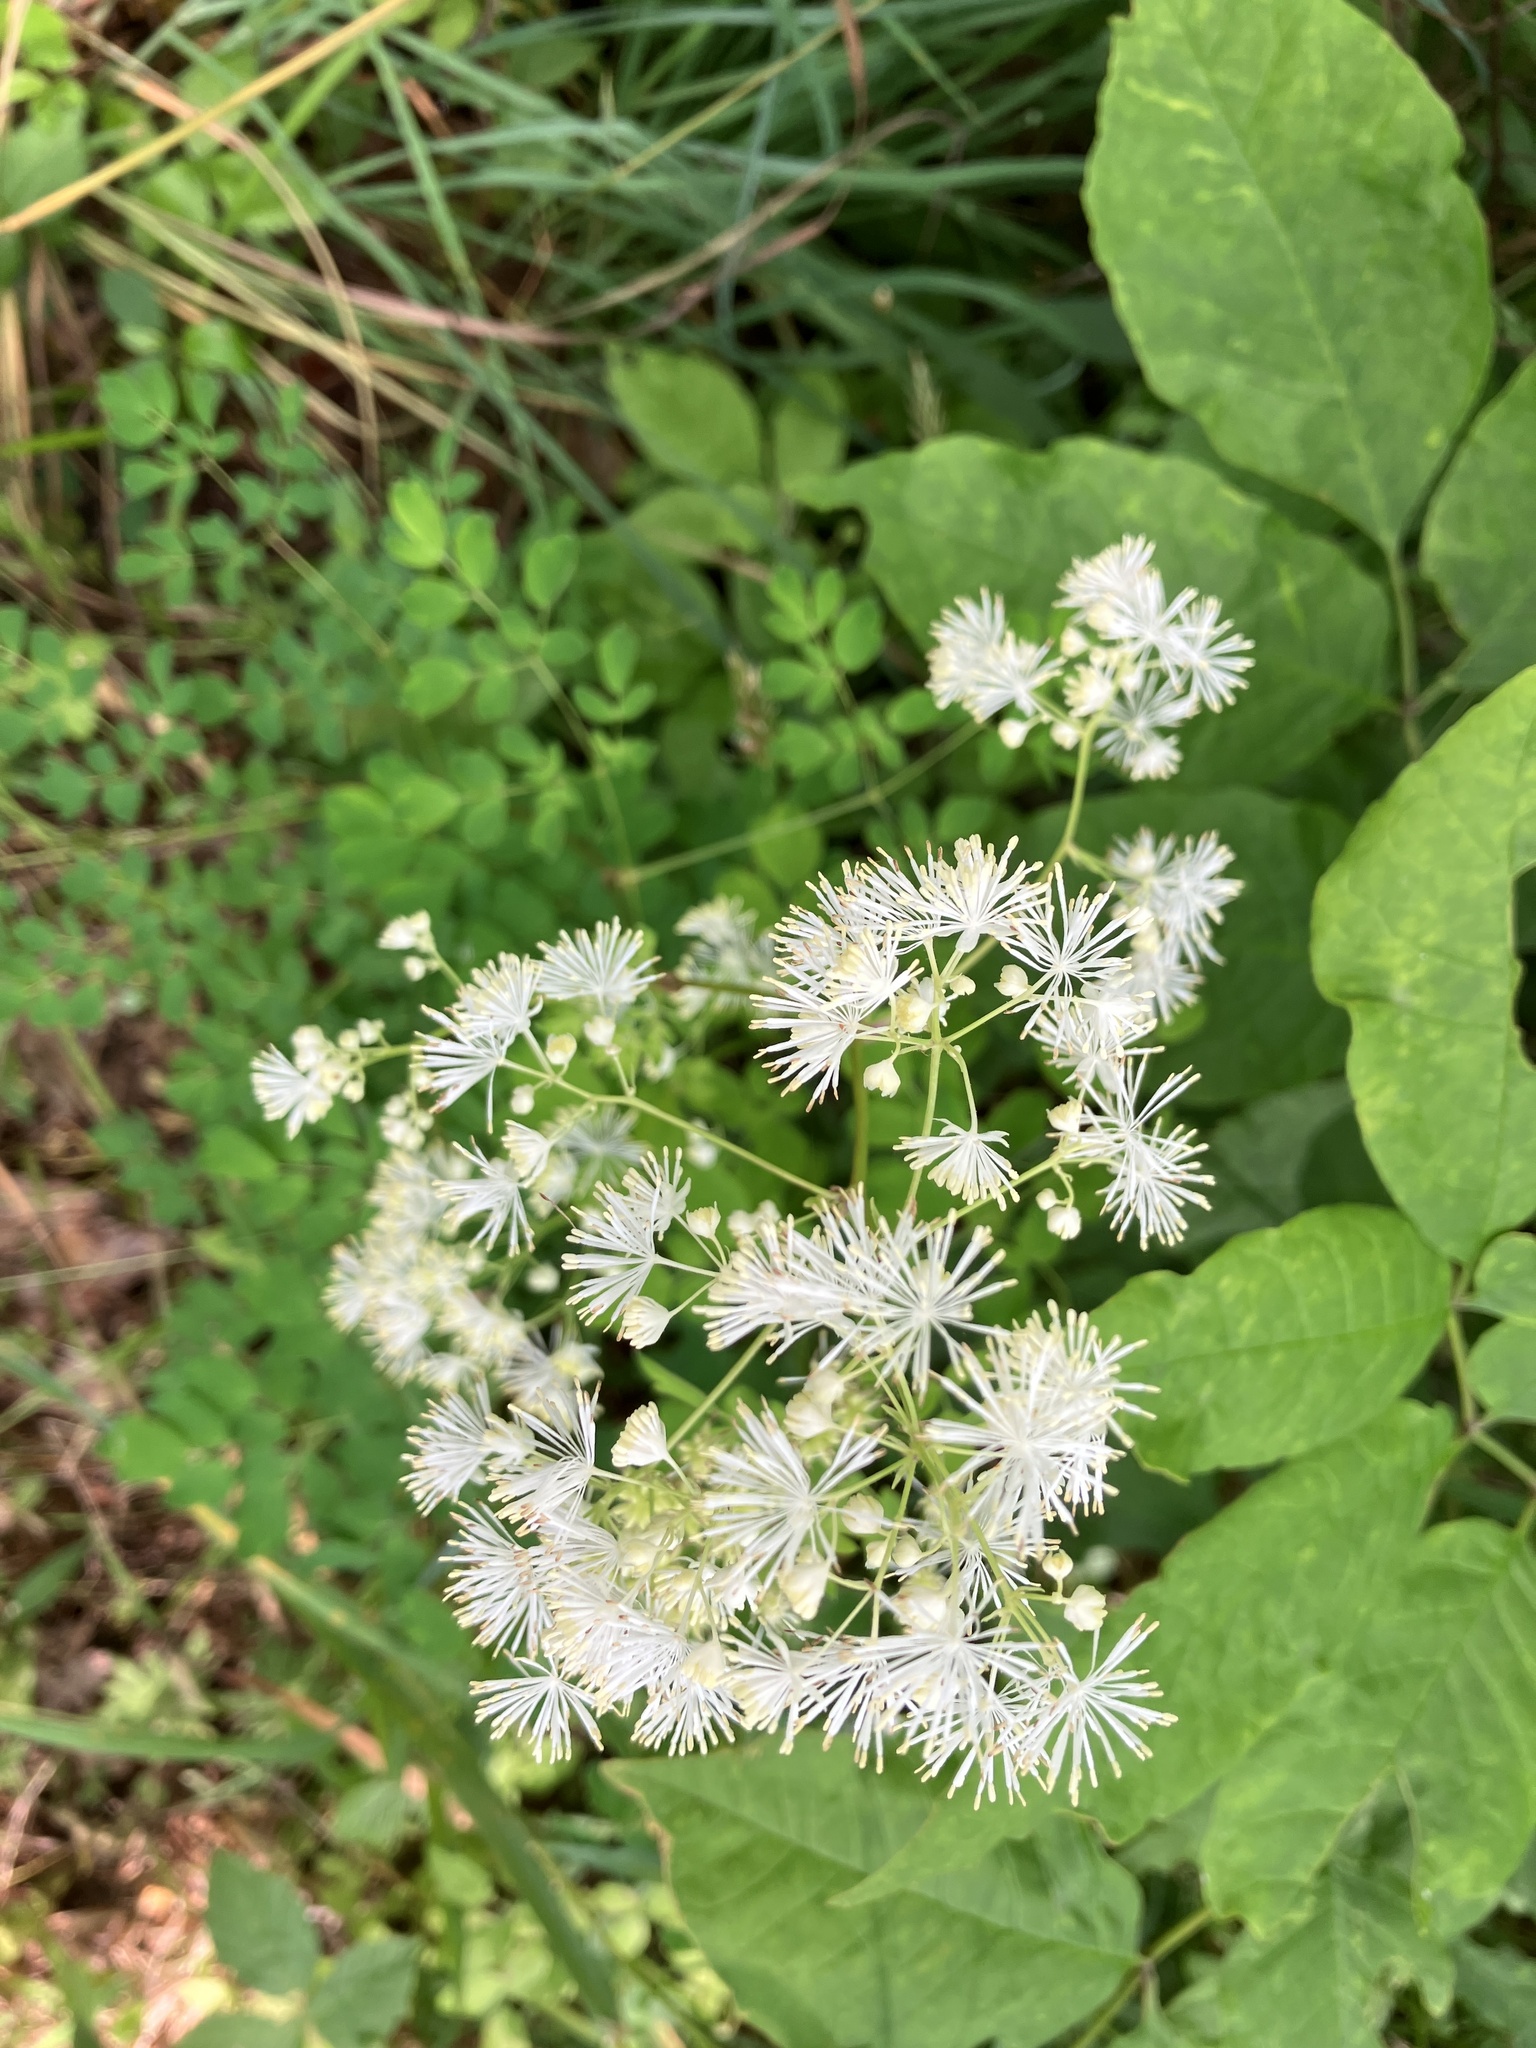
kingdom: Plantae
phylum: Tracheophyta
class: Magnoliopsida
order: Ranunculales
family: Ranunculaceae
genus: Thalictrum
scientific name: Thalictrum pubescens
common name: King-of-the-meadow
